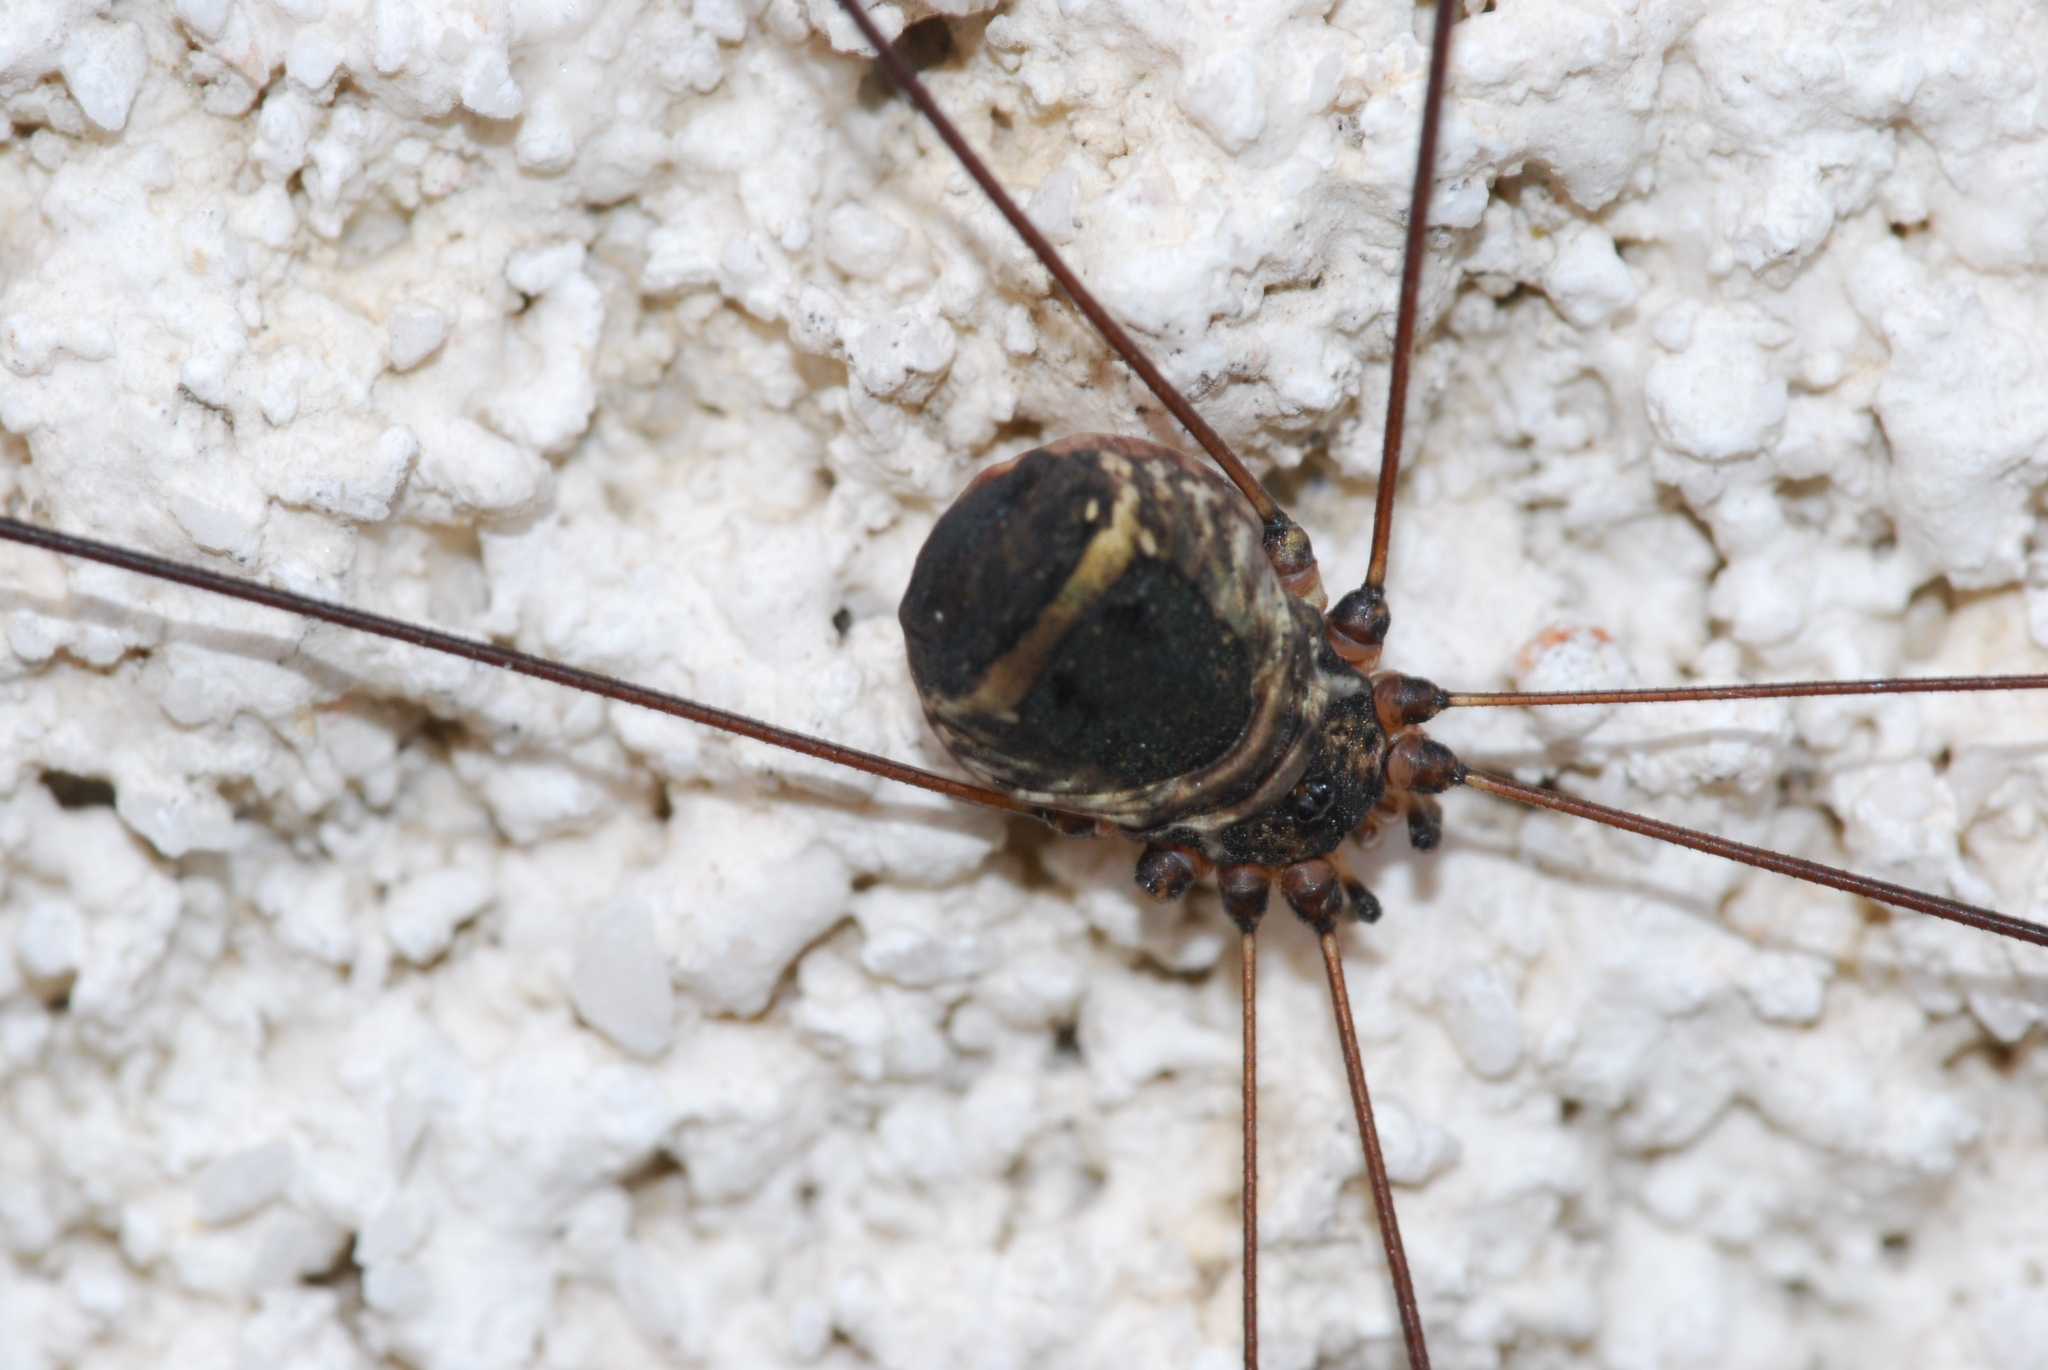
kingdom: Animalia
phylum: Arthropoda
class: Arachnida
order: Opiliones
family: Sclerosomatidae
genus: Leiobunum
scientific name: Leiobunum
